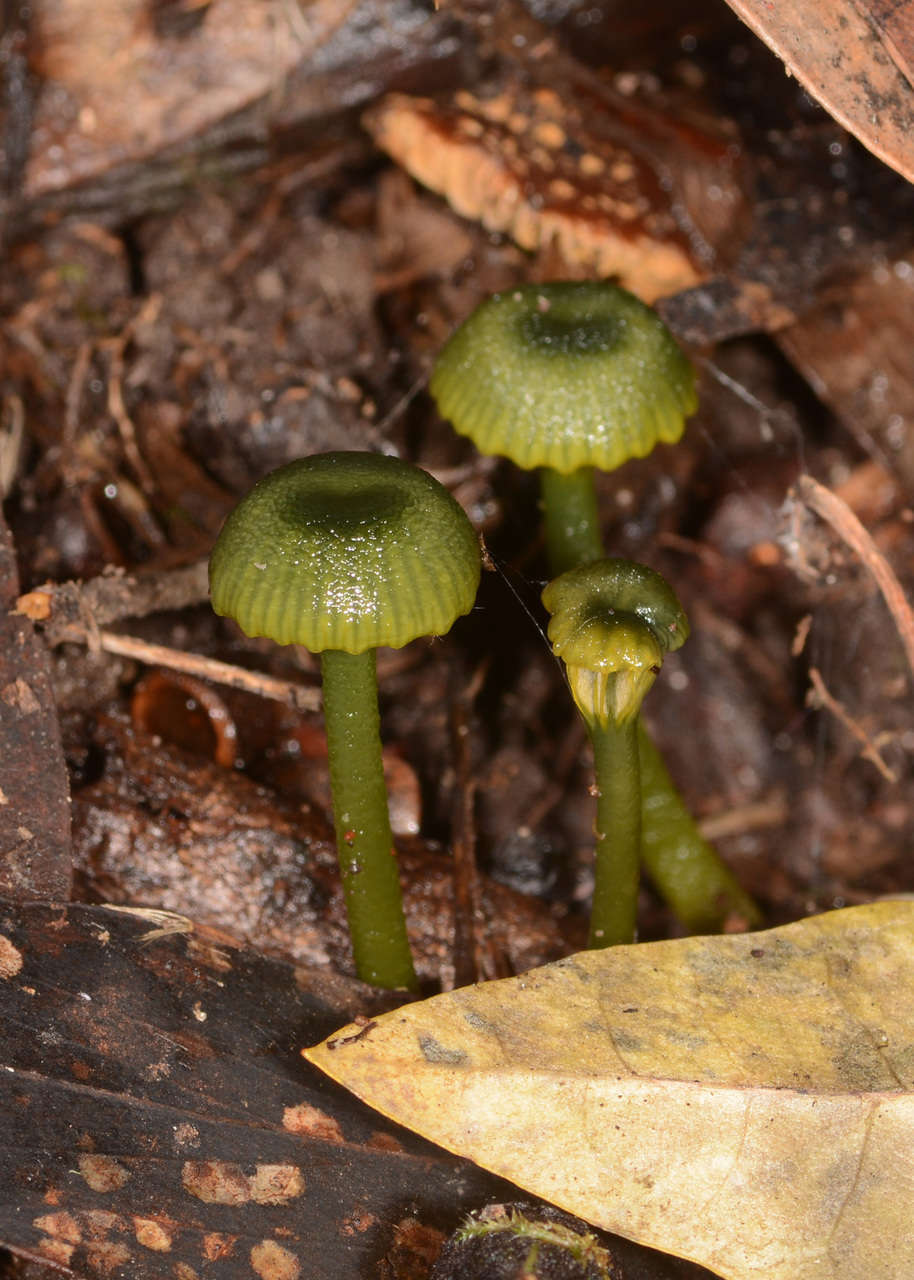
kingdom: Fungi
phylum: Basidiomycota
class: Agaricomycetes
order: Agaricales
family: Hygrophoraceae
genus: Gliophorus
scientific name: Gliophorus pseudograminicolor
